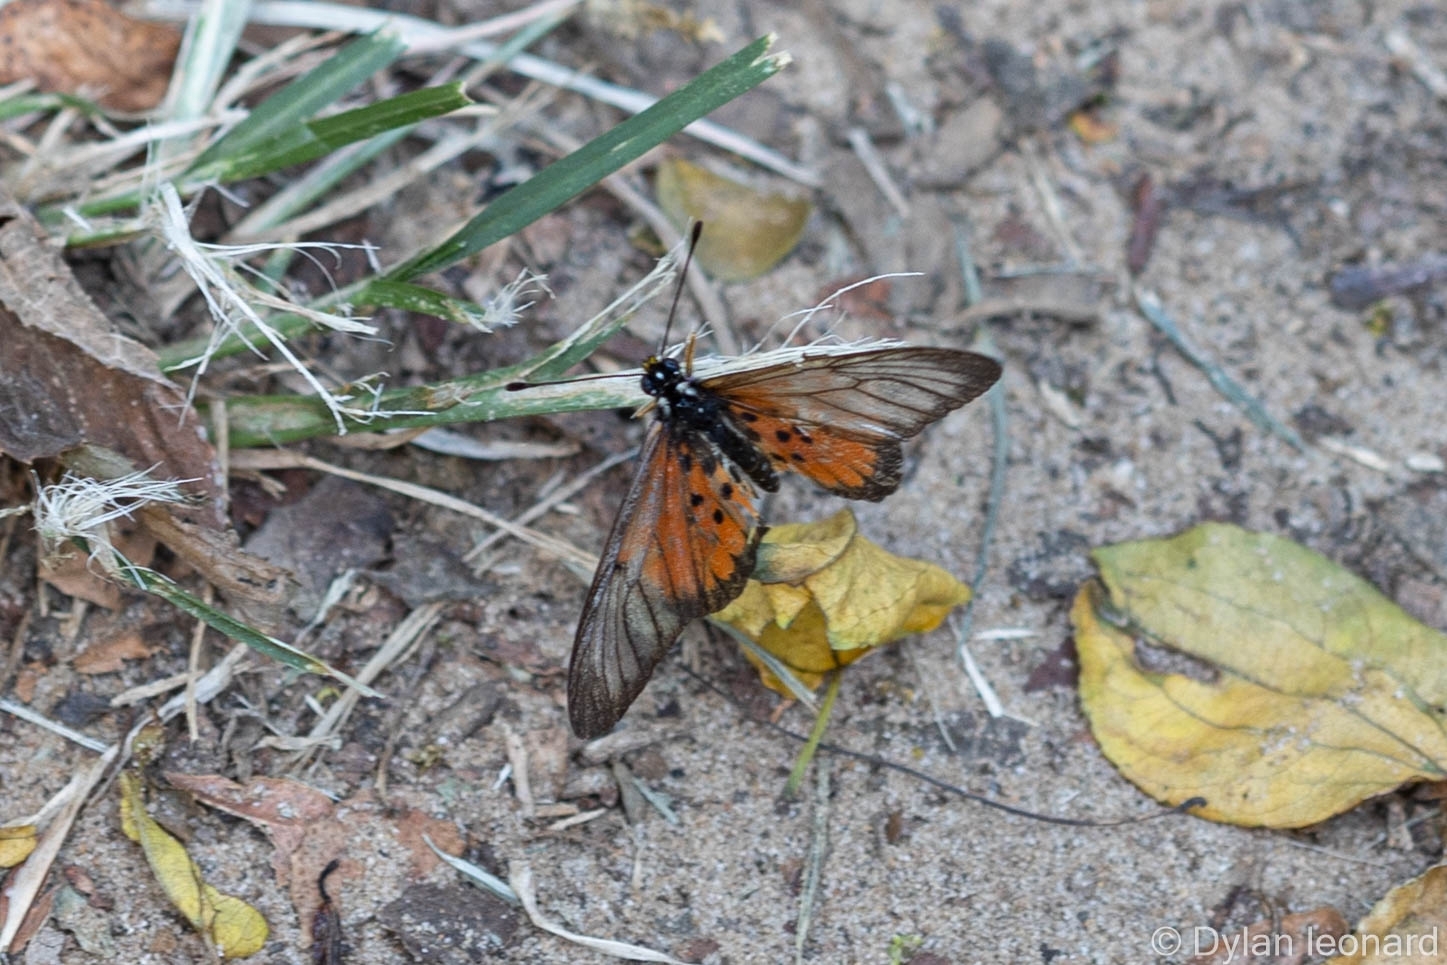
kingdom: Animalia
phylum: Arthropoda
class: Insecta
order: Lepidoptera
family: Nymphalidae
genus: Acraea
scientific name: Acraea igola
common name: Dusky-veined acraea
